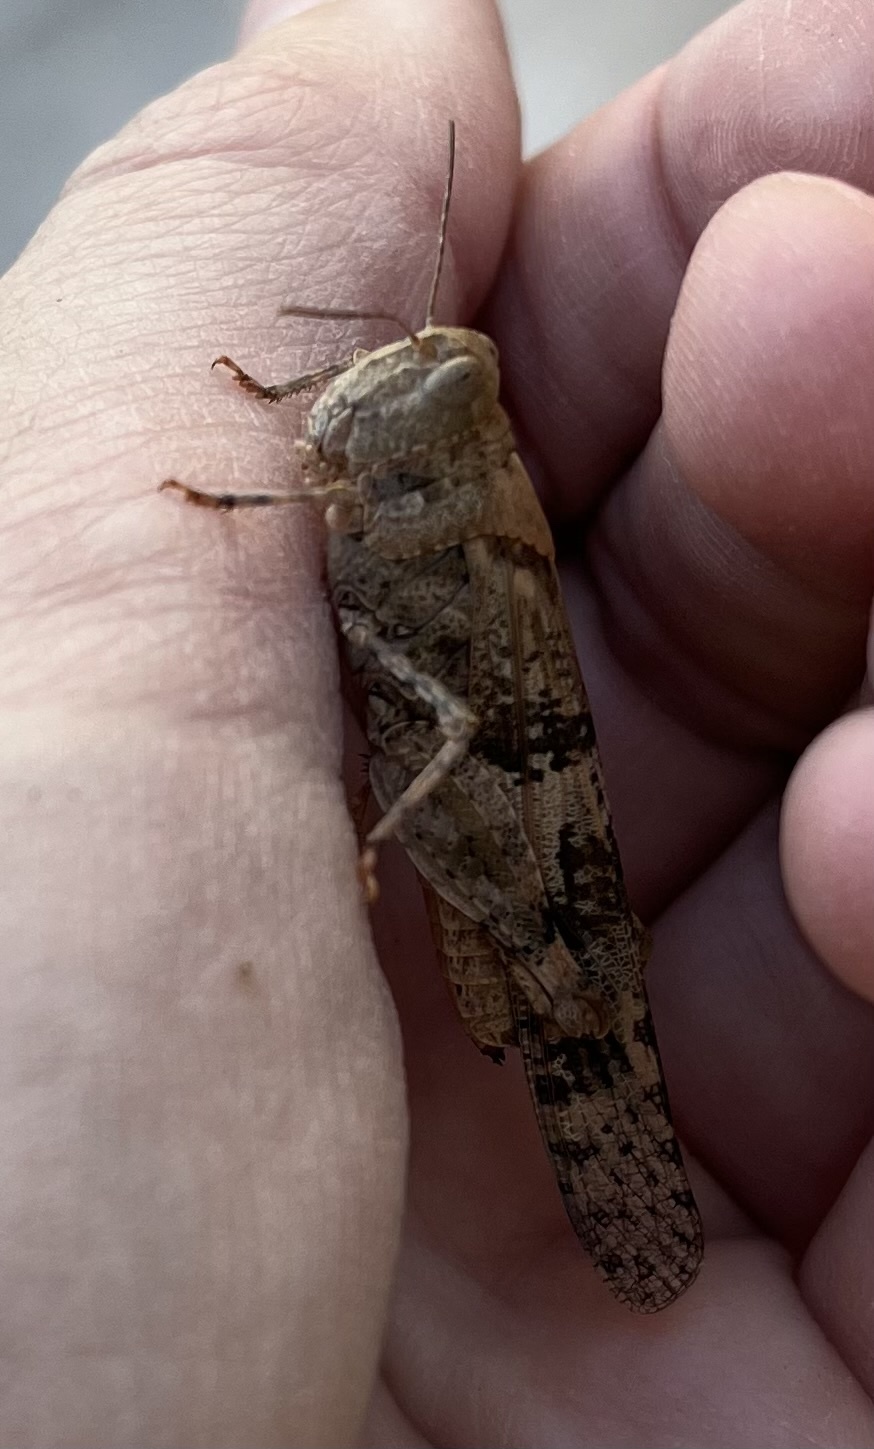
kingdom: Animalia
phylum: Arthropoda
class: Insecta
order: Orthoptera
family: Acrididae
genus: Trimerotropis
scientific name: Trimerotropis pallidipennis
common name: Pallid-winged grasshopper
